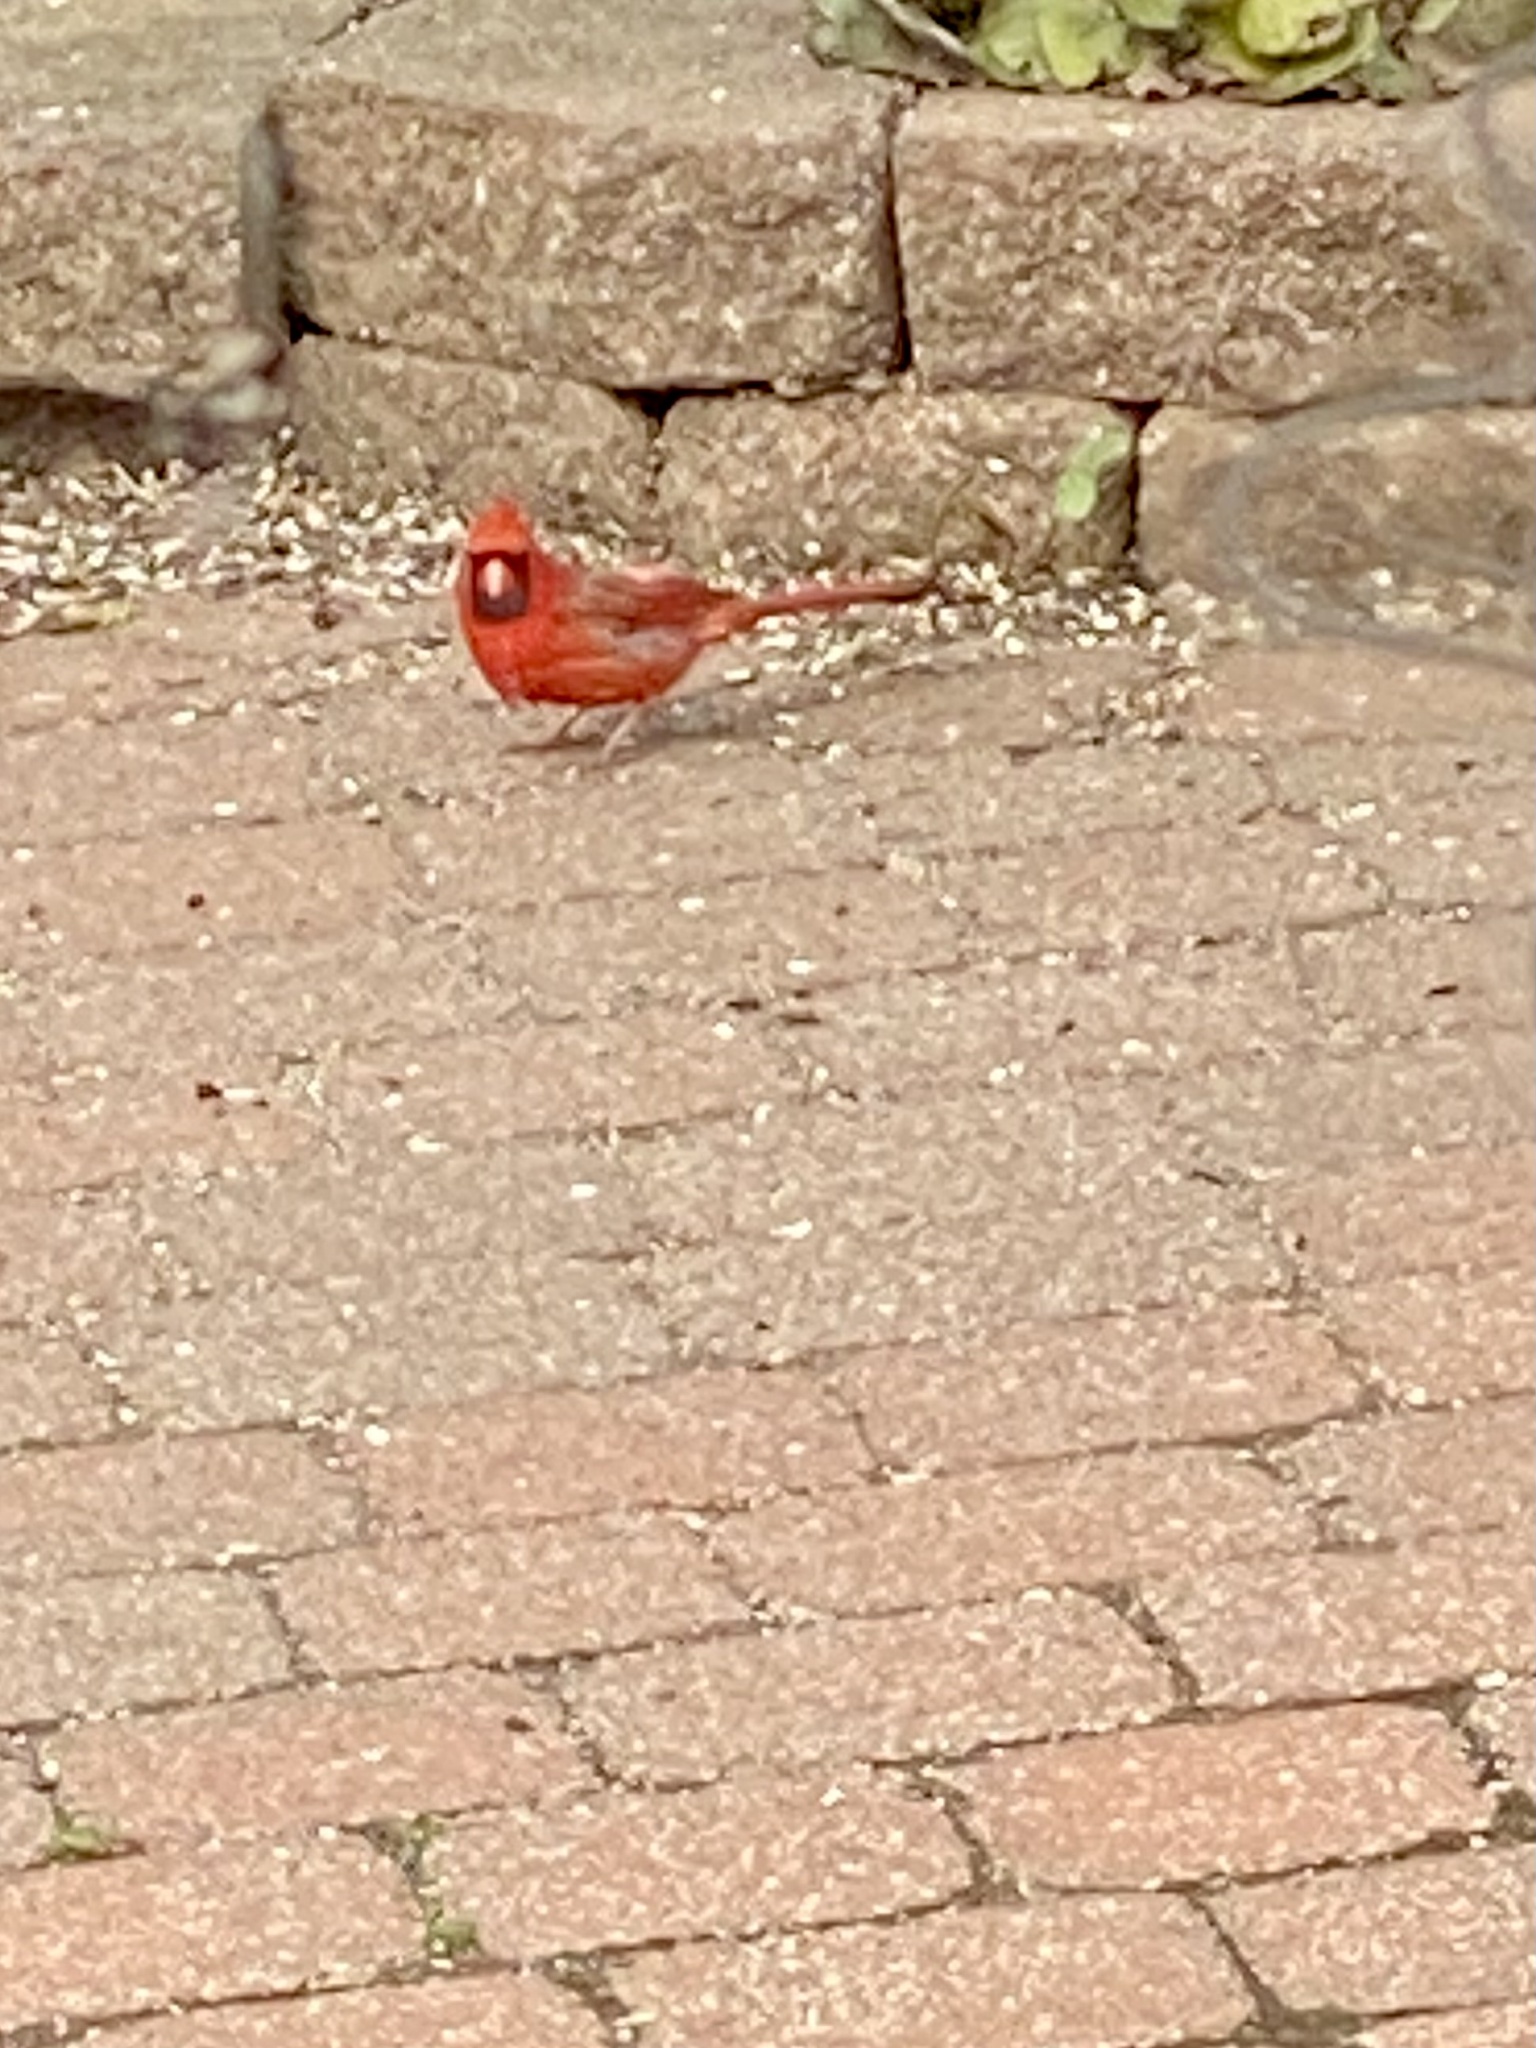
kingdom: Animalia
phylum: Chordata
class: Aves
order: Passeriformes
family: Cardinalidae
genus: Cardinalis
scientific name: Cardinalis cardinalis
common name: Northern cardinal
